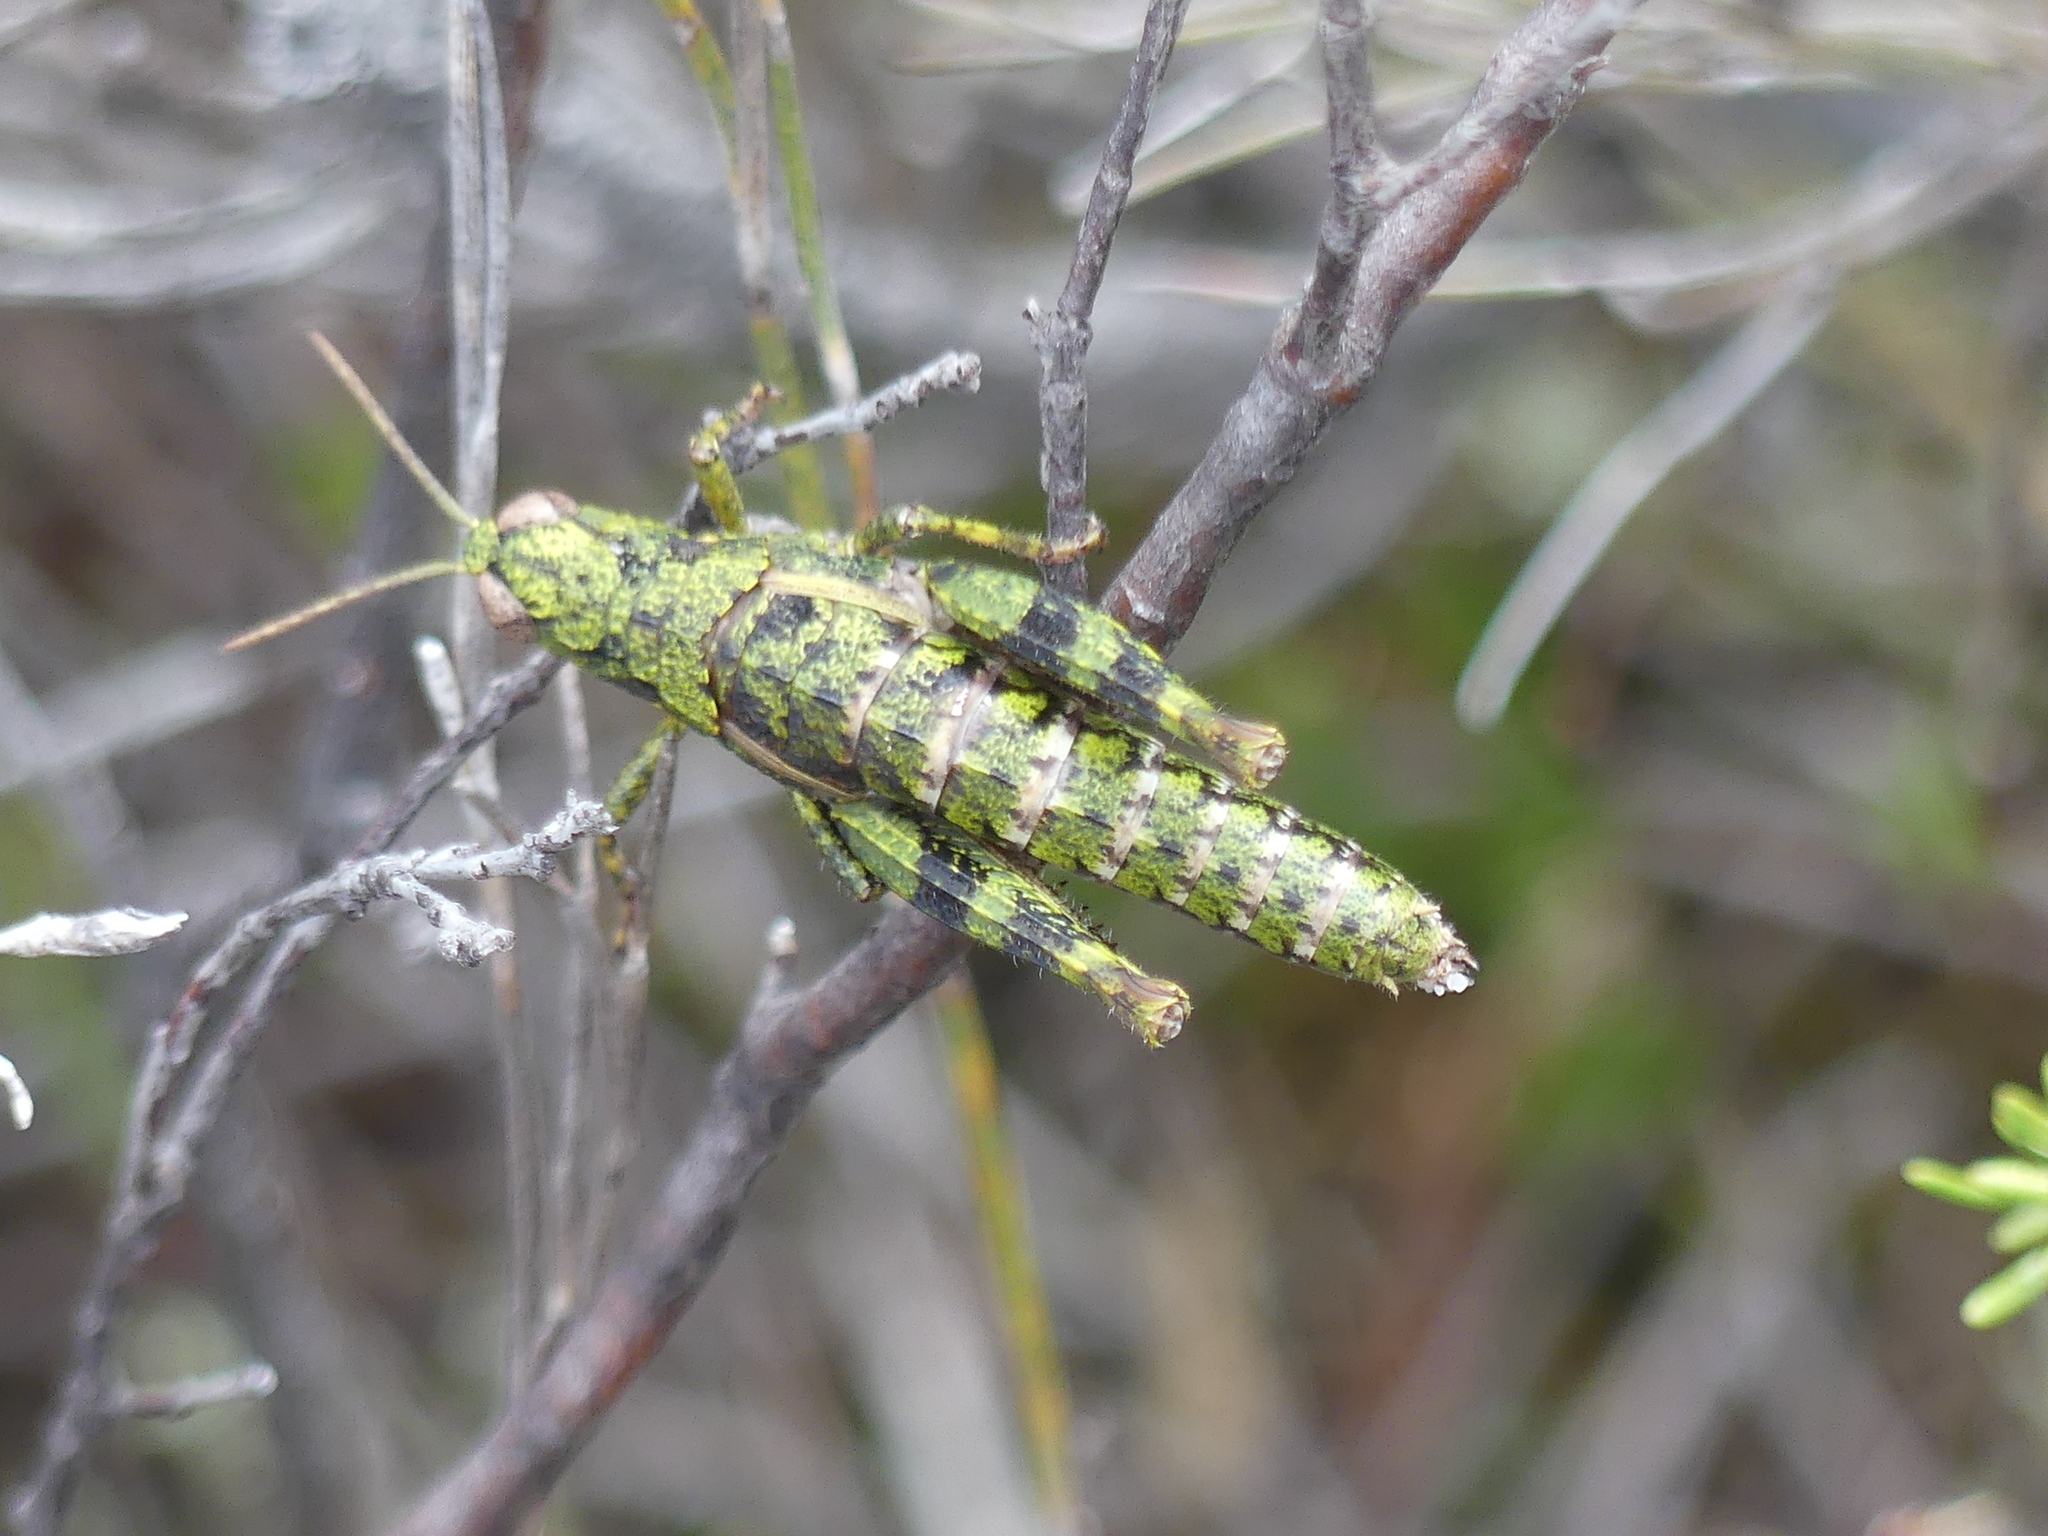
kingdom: Animalia
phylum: Arthropoda
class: Insecta
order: Orthoptera
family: Acrididae
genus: Tasmaniacris
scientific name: Tasmaniacris tasmaniensis
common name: Tasmanian grasshopper
